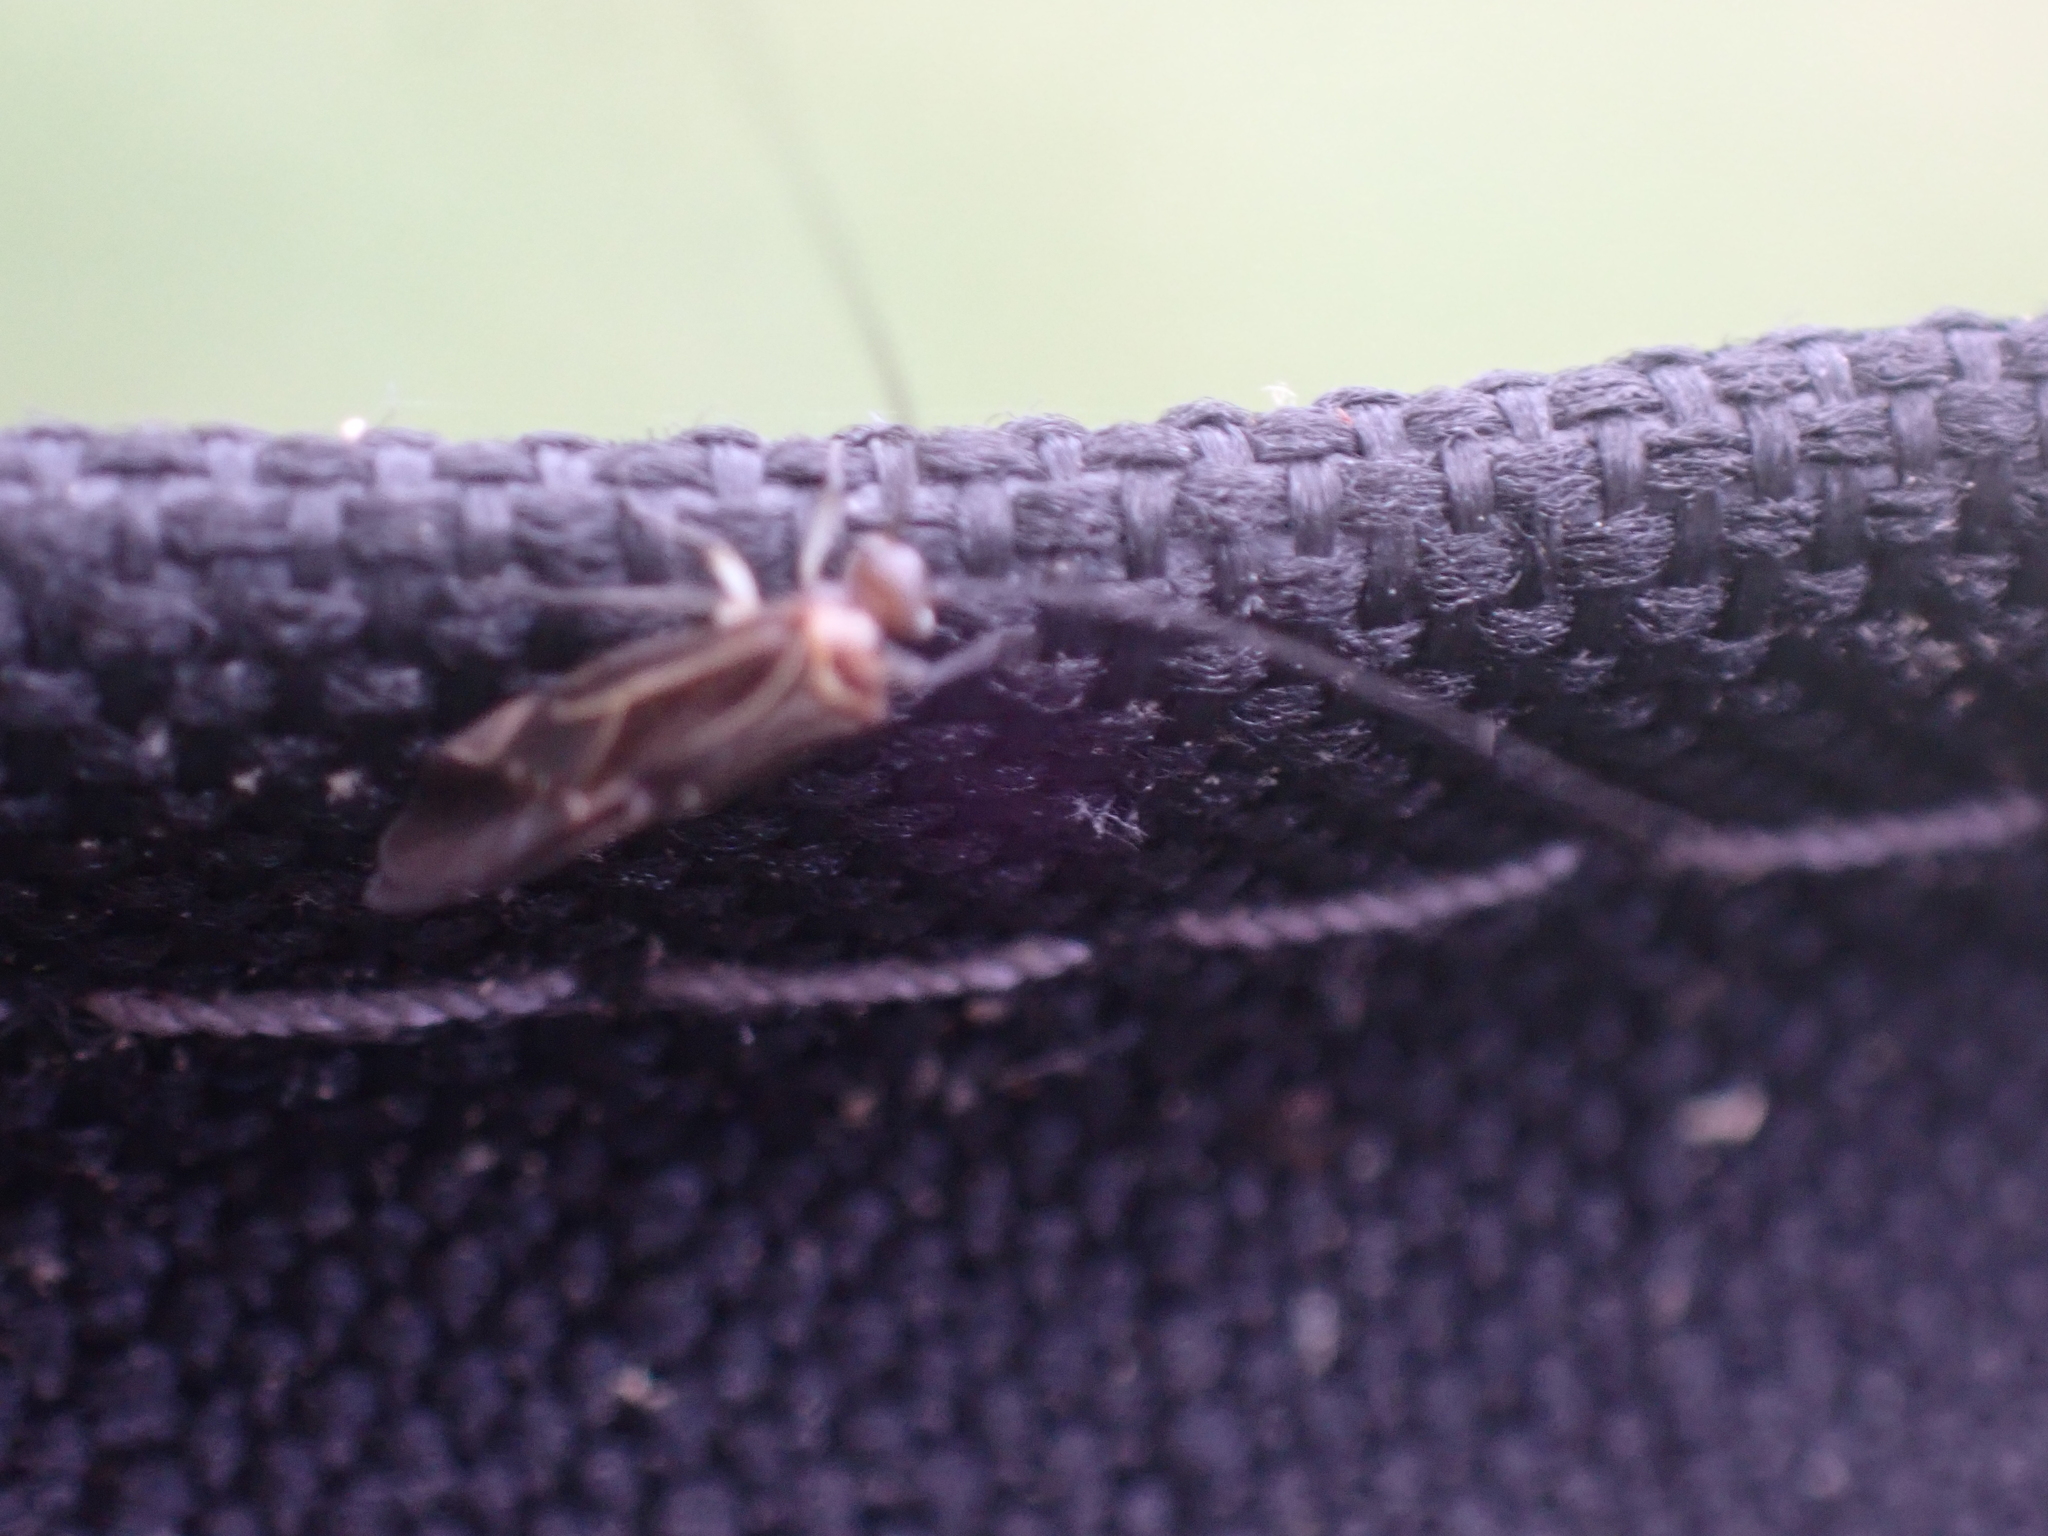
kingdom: Animalia
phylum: Arthropoda
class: Insecta
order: Psocodea
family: Psocidae
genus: Cerastipsocus
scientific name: Cerastipsocus venosus
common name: Tree cattle
